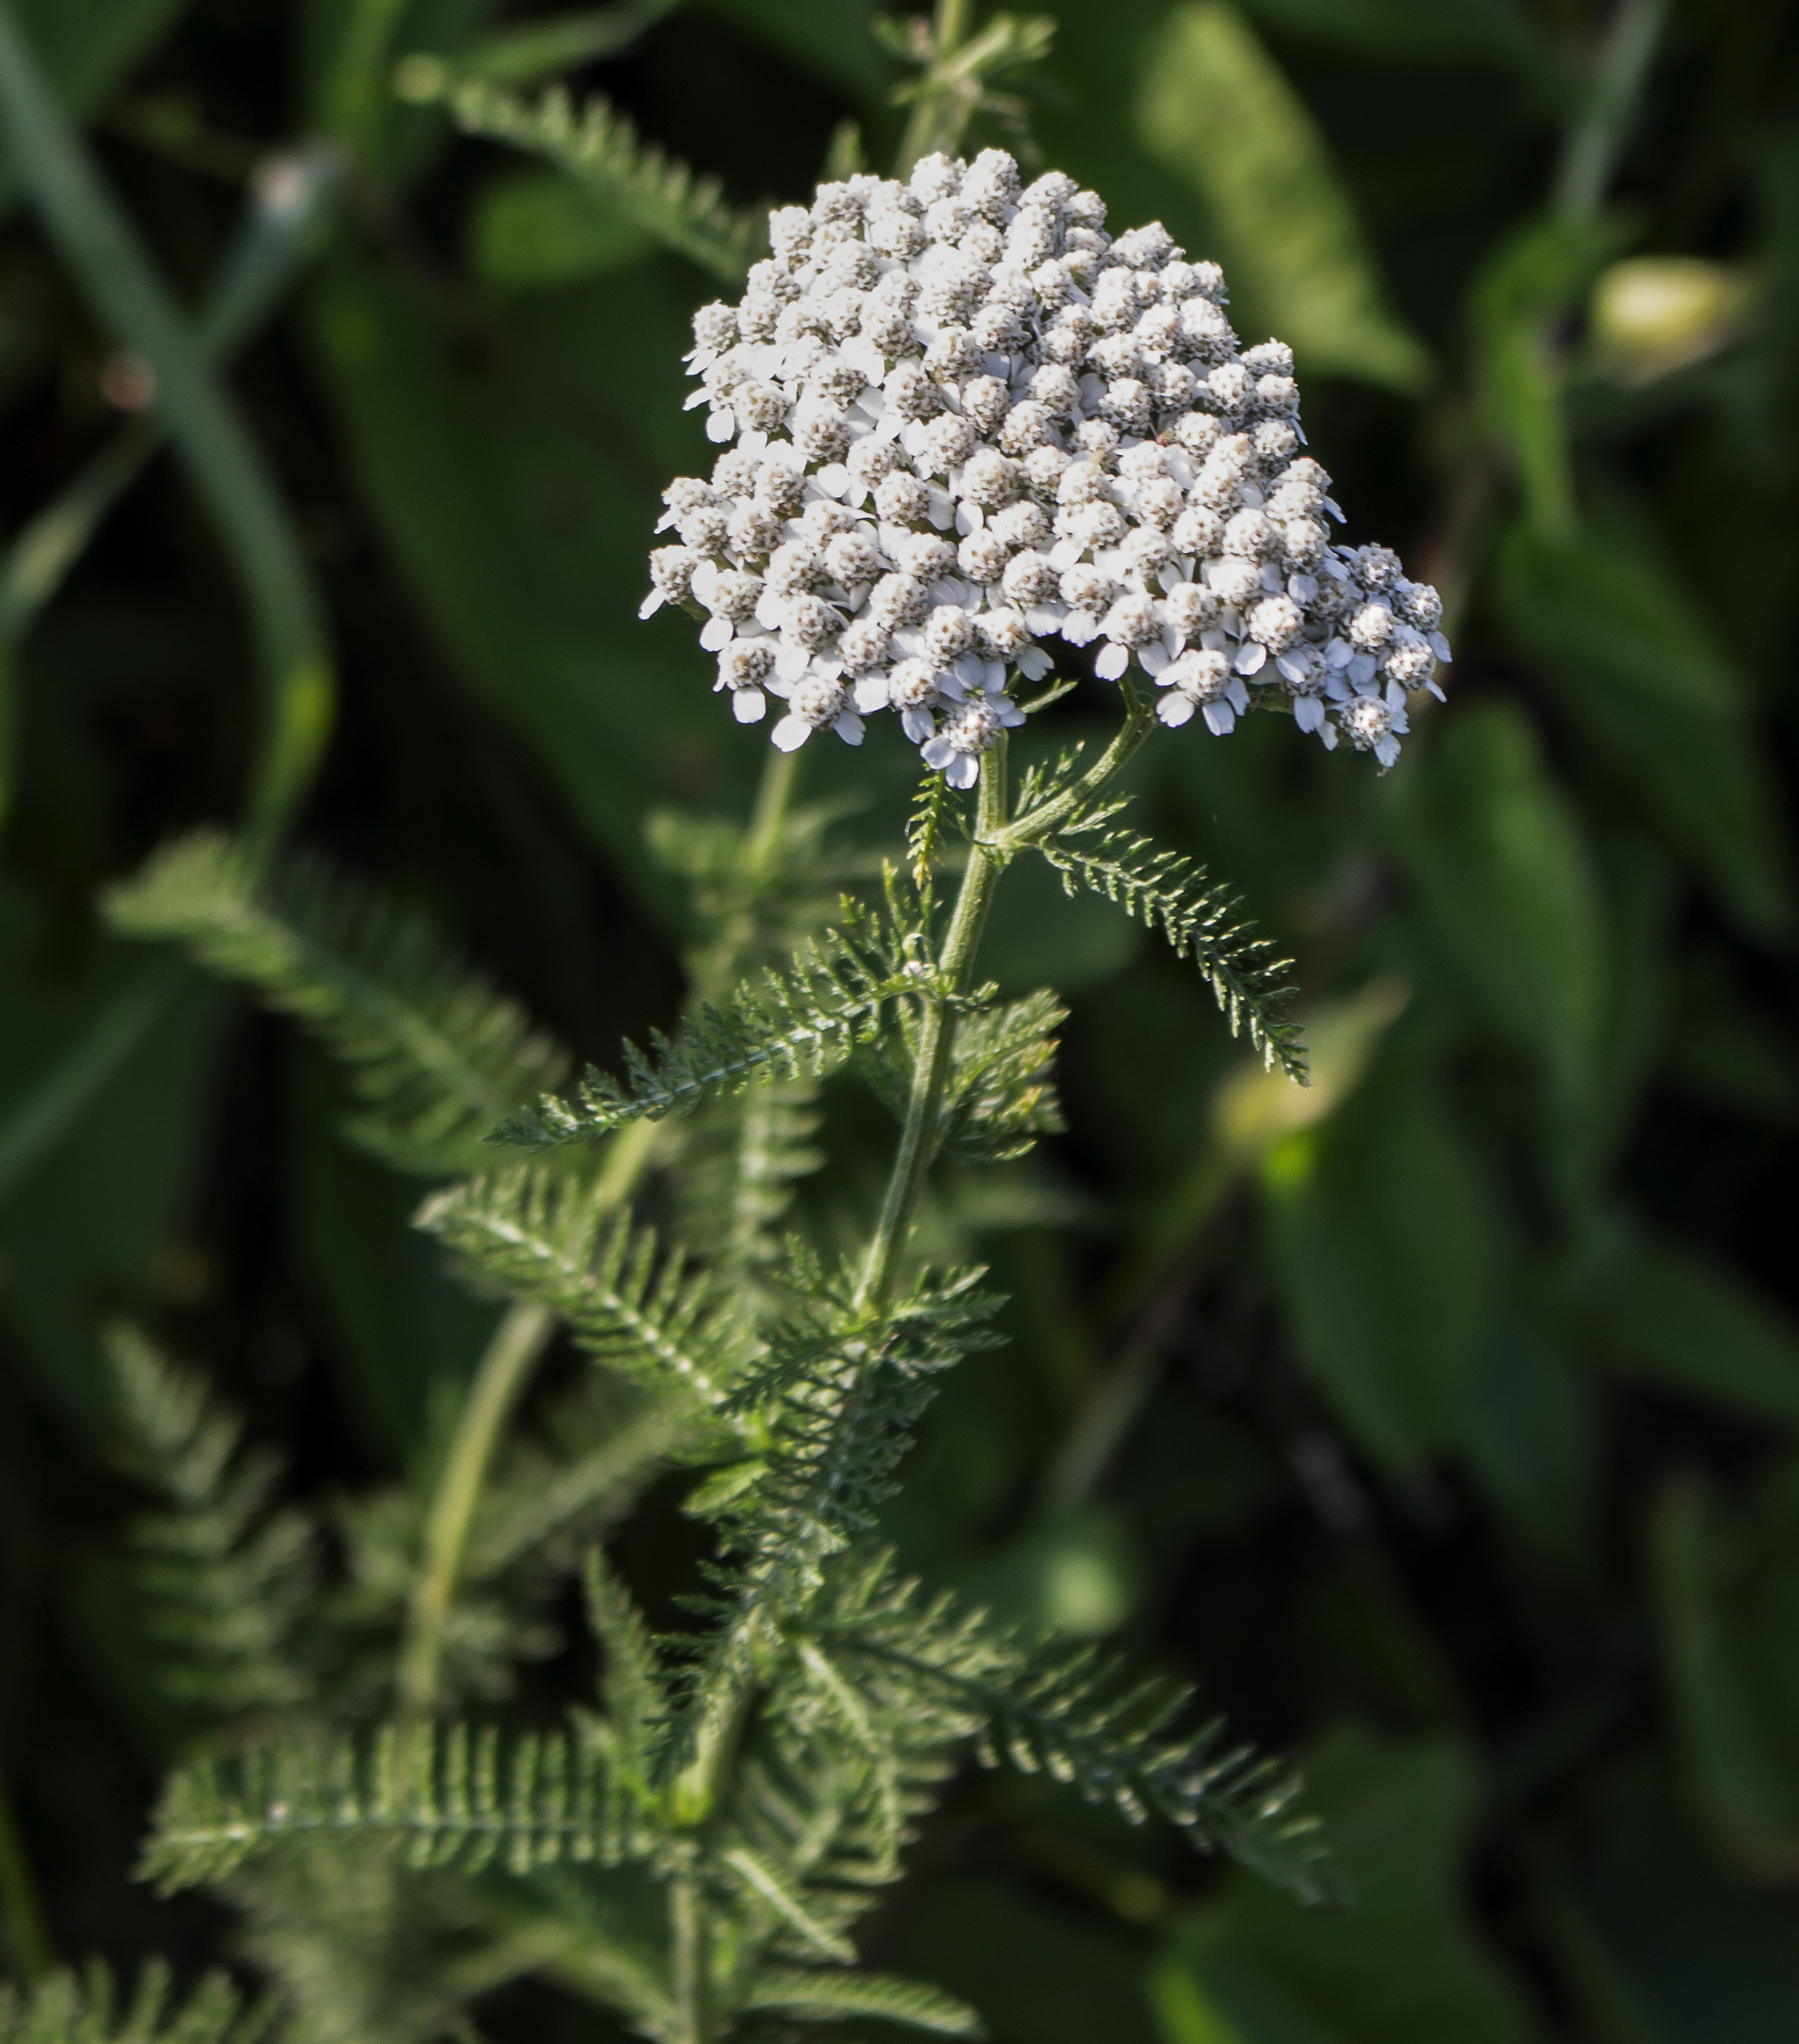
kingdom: Plantae
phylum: Tracheophyta
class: Magnoliopsida
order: Asterales
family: Asteraceae
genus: Achillea
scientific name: Achillea millefolium
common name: Yarrow
